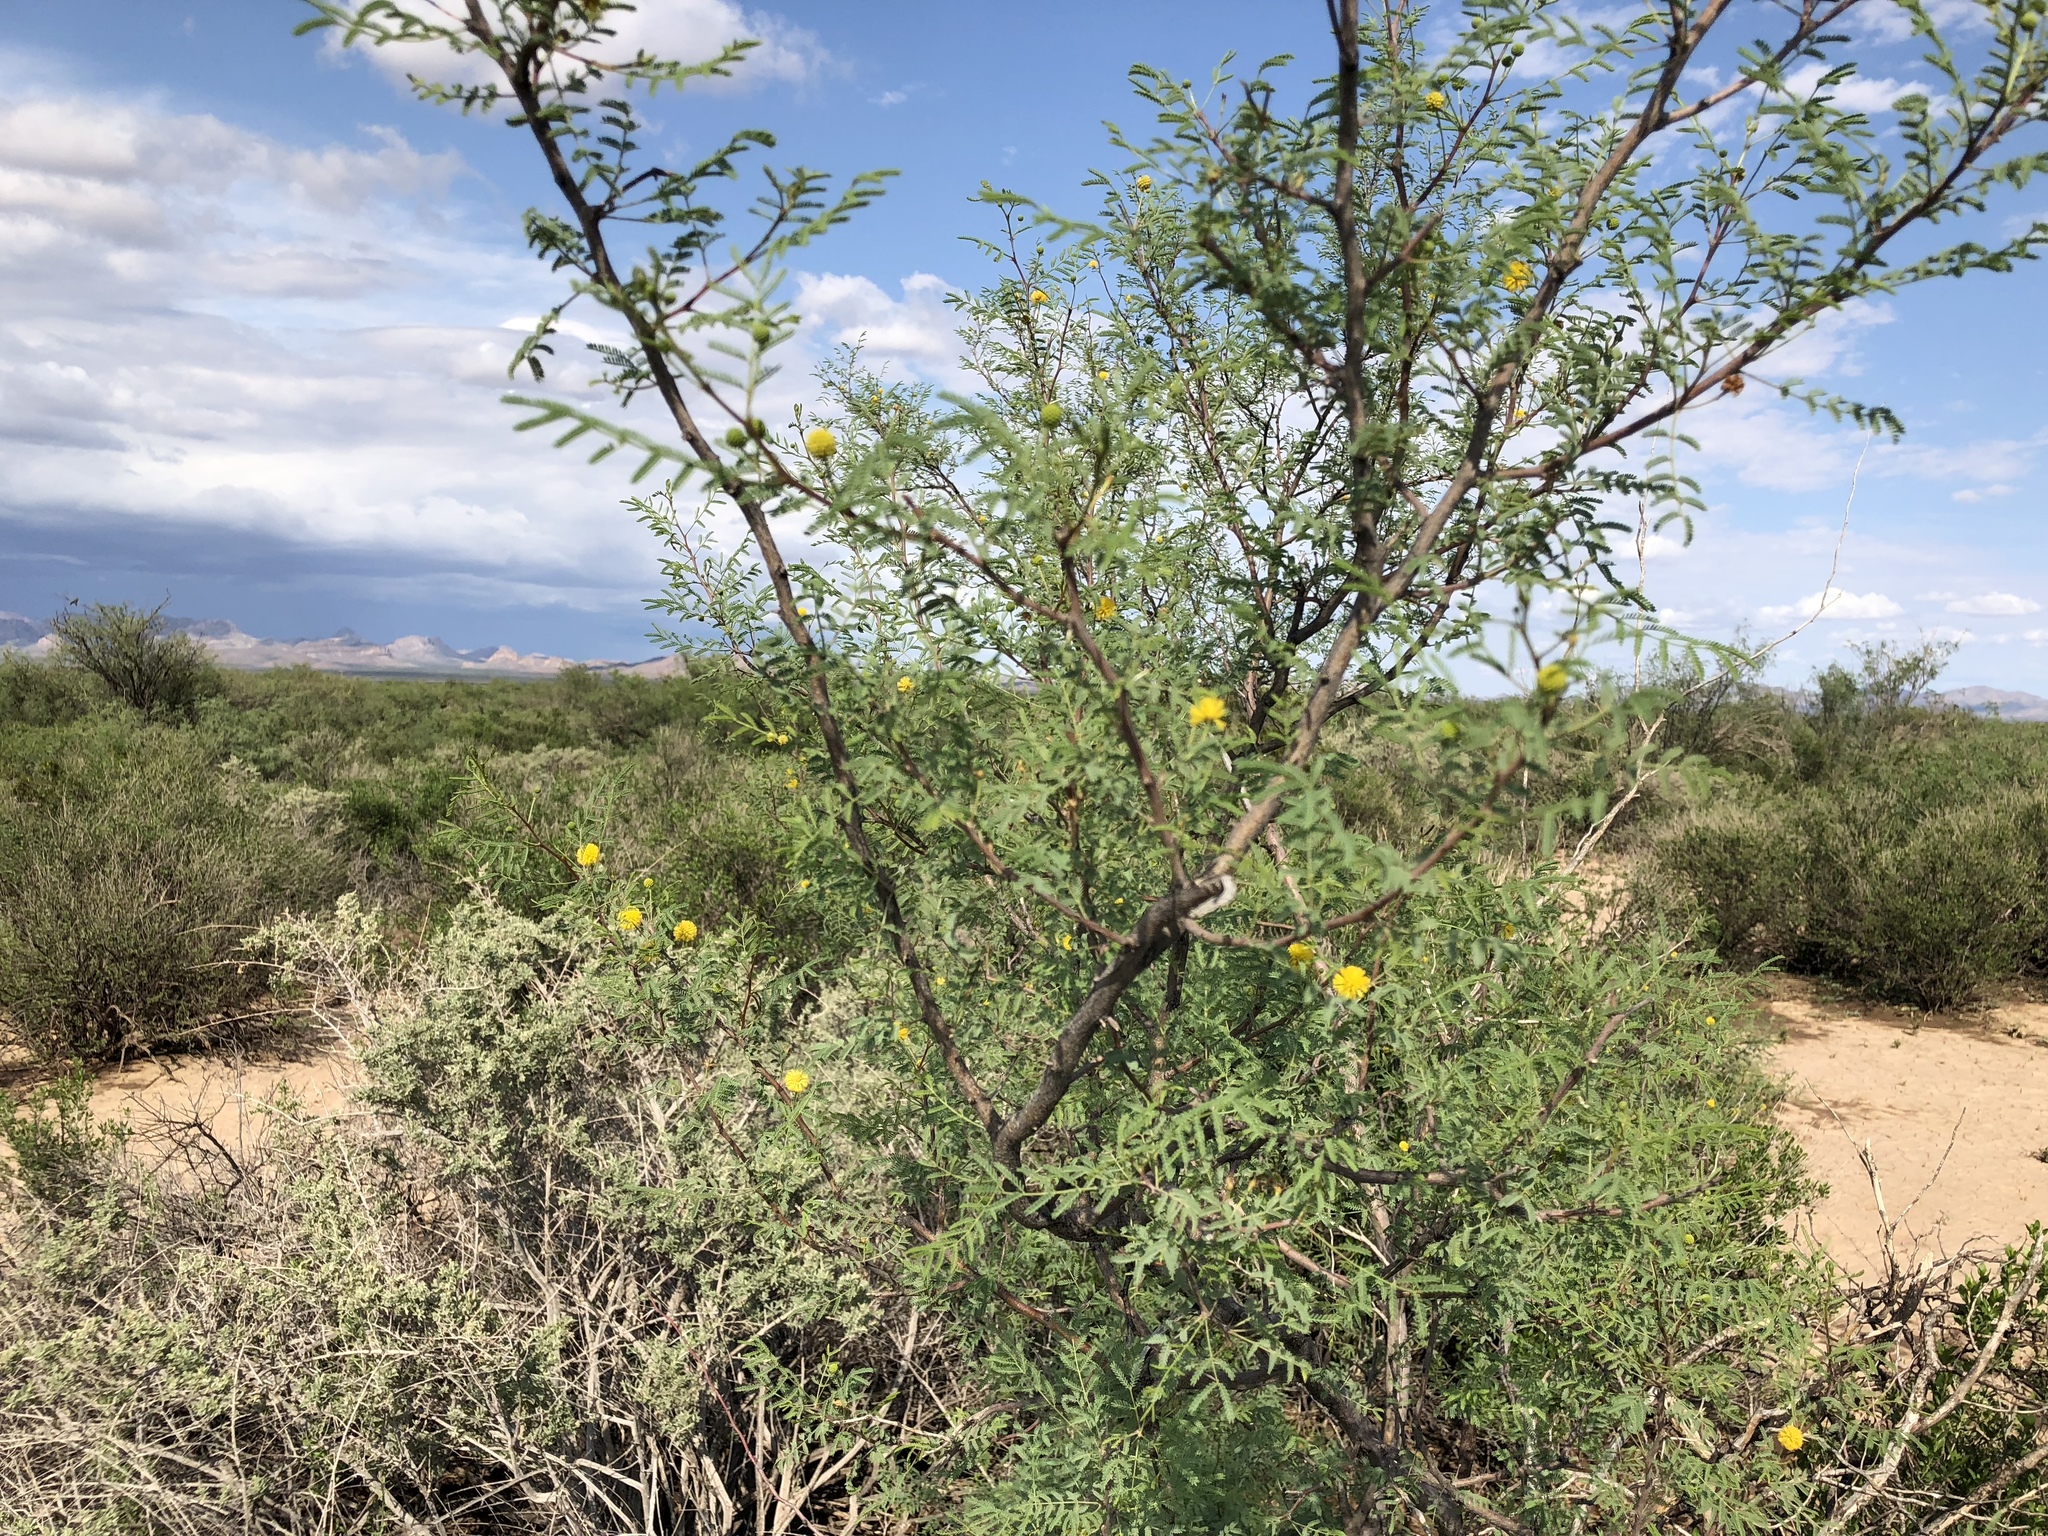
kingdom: Plantae
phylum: Tracheophyta
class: Magnoliopsida
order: Fabales
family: Fabaceae
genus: Vachellia
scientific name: Vachellia constricta
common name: Mescat acacia
